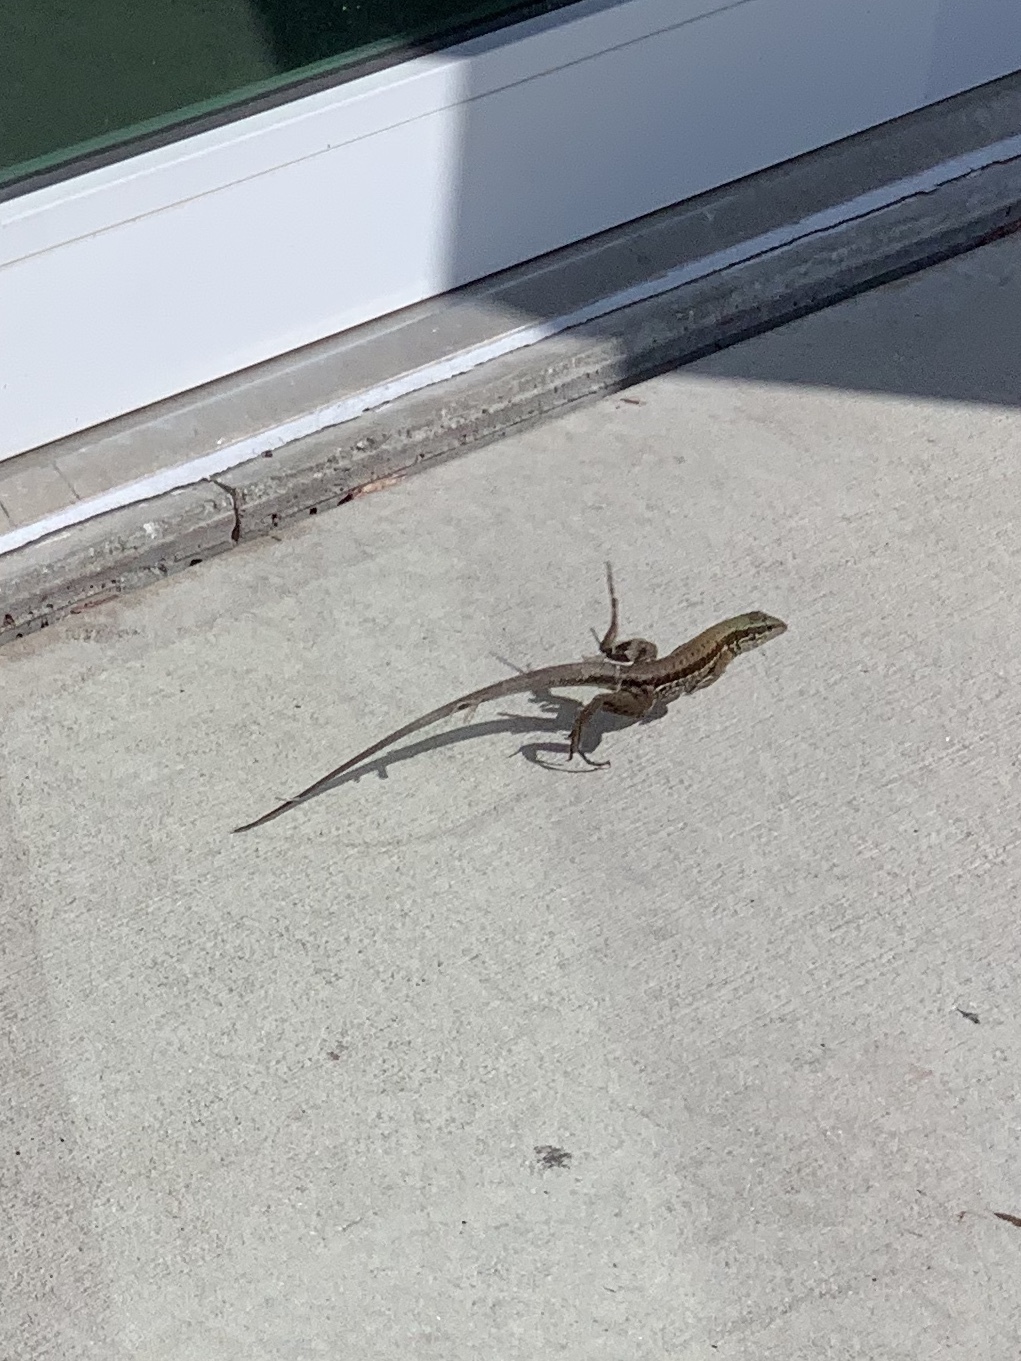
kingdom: Animalia
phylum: Chordata
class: Squamata
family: Teiidae
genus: Ameiva
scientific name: Ameiva ameiva
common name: Giant ameiva
